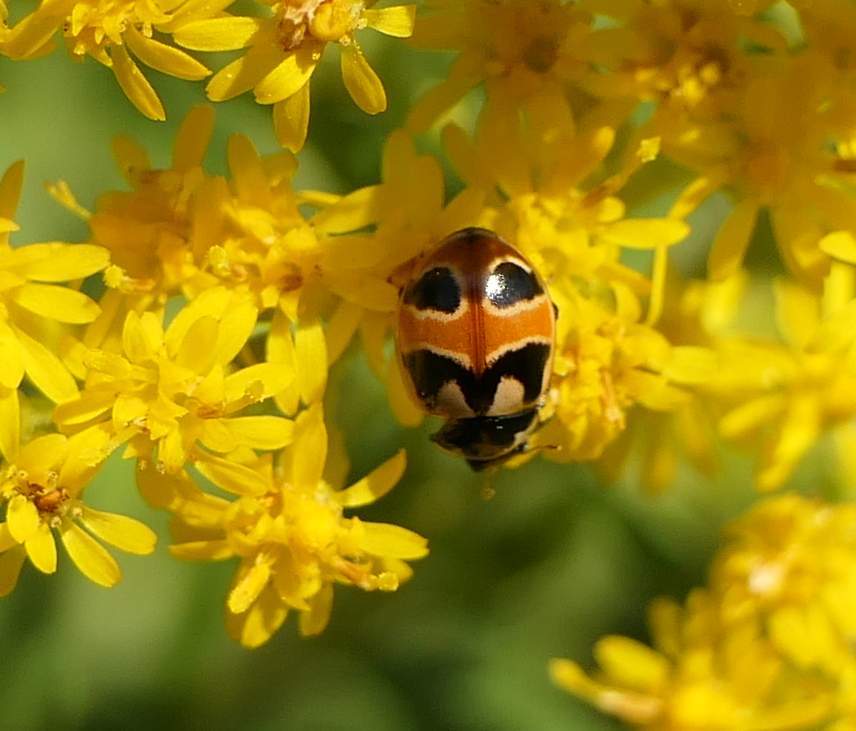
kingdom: Animalia
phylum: Arthropoda
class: Insecta
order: Coleoptera
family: Coccinellidae
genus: Coccinella
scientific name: Coccinella hieroglyphica
